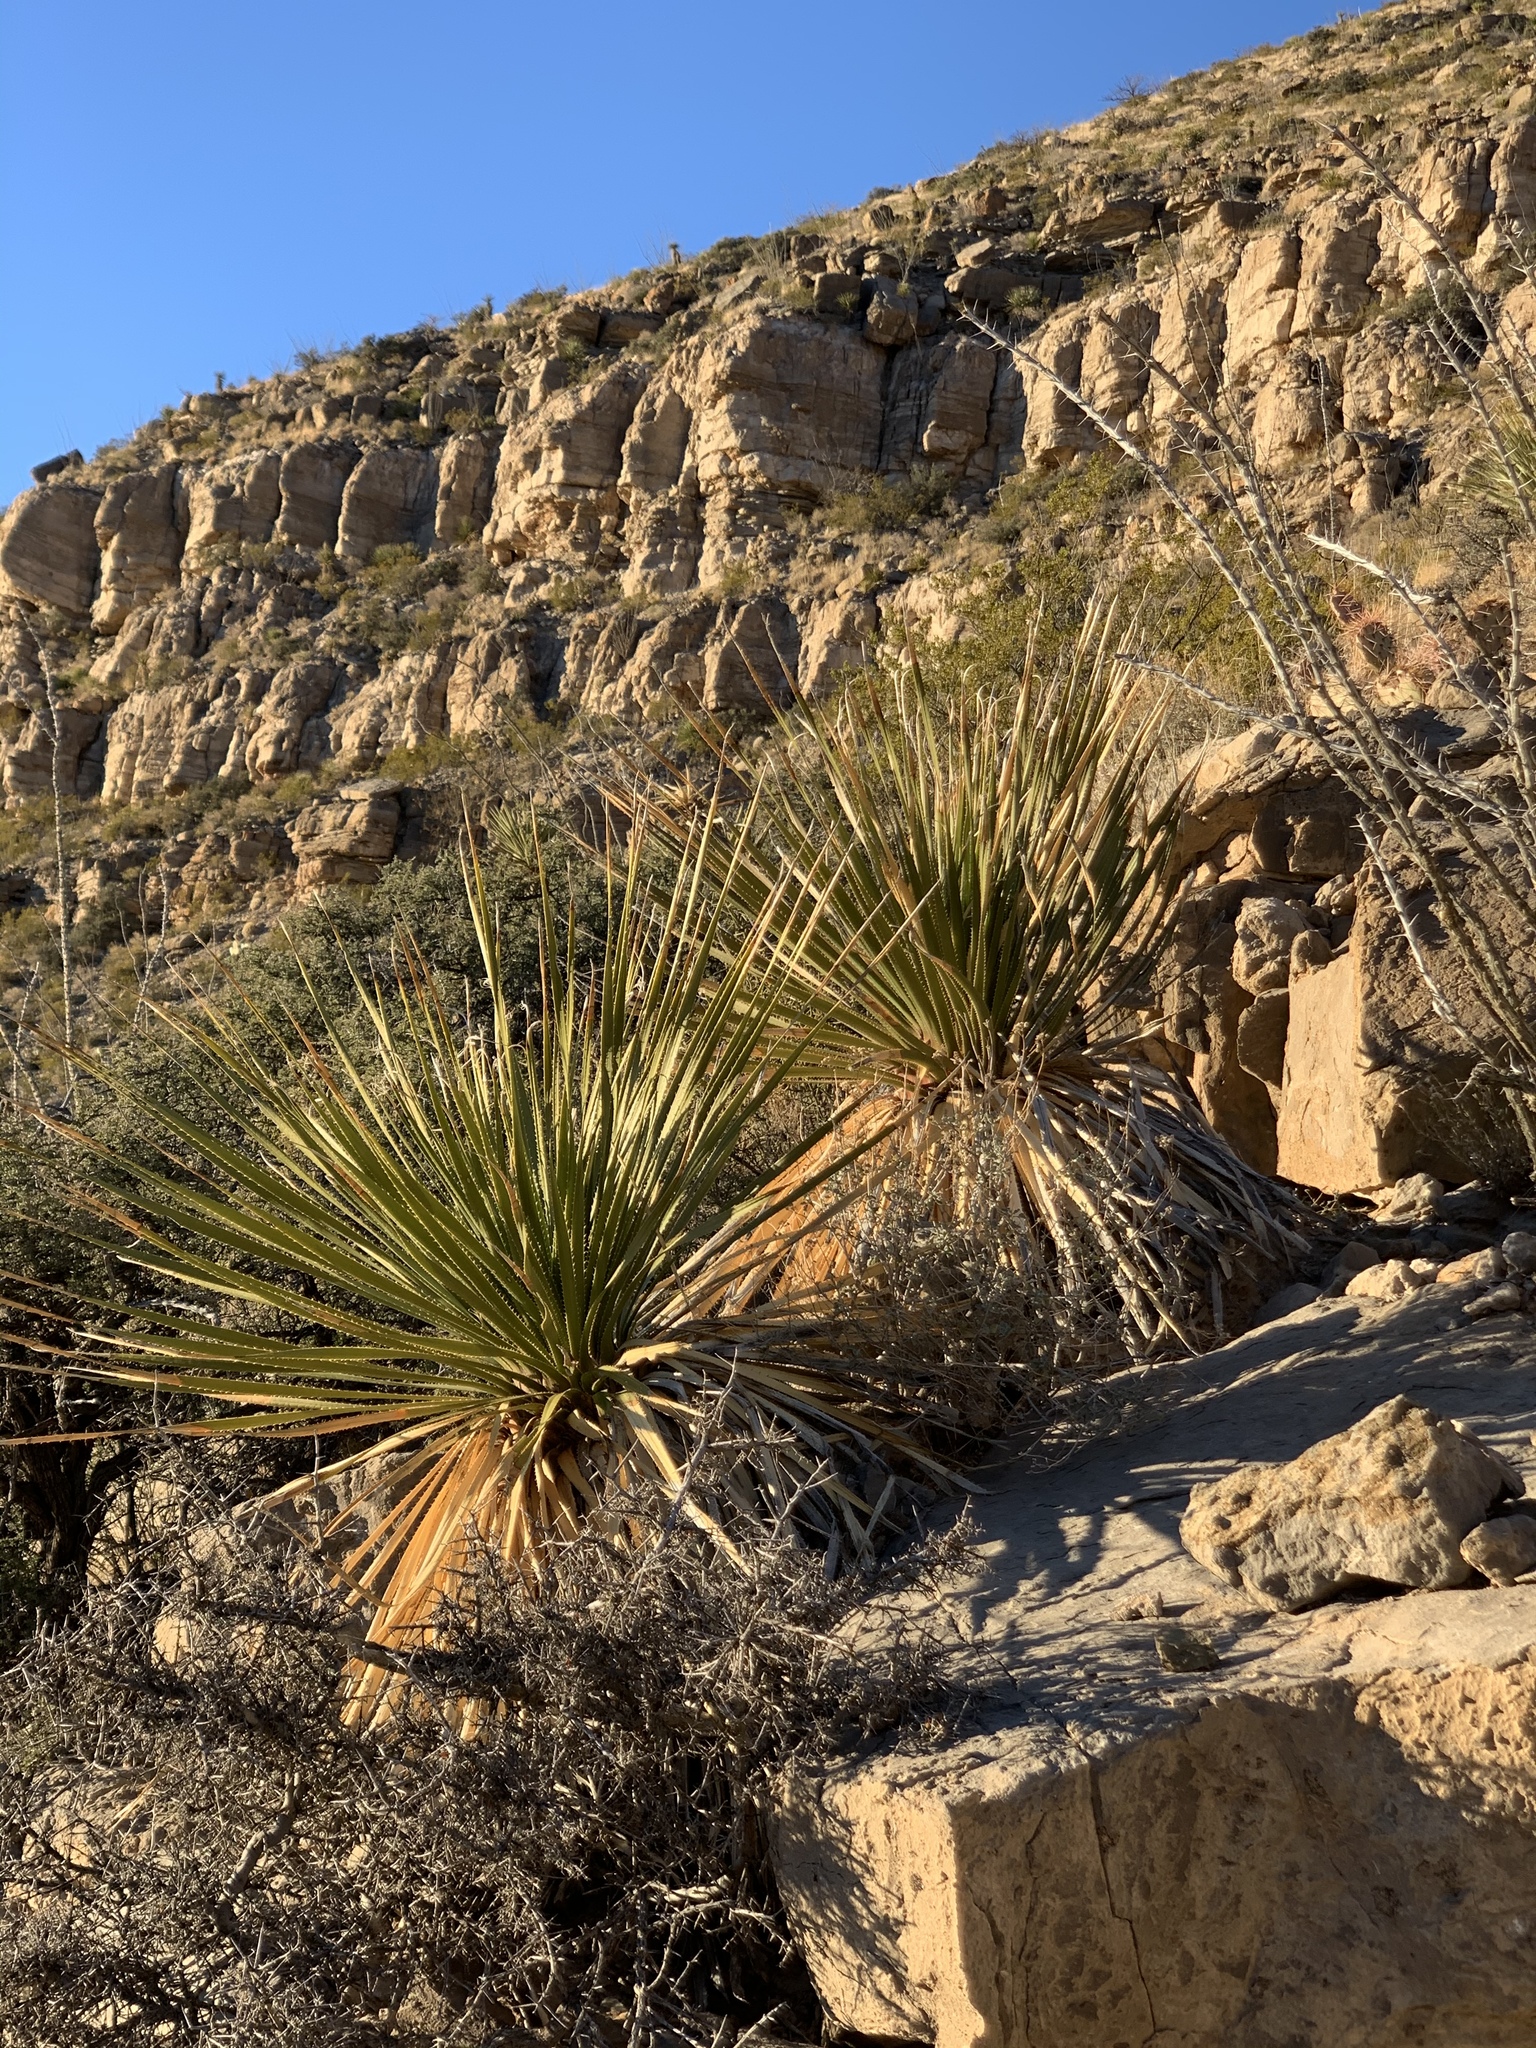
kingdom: Plantae
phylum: Tracheophyta
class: Liliopsida
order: Asparagales
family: Asparagaceae
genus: Dasylirion
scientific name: Dasylirion wheeleri
